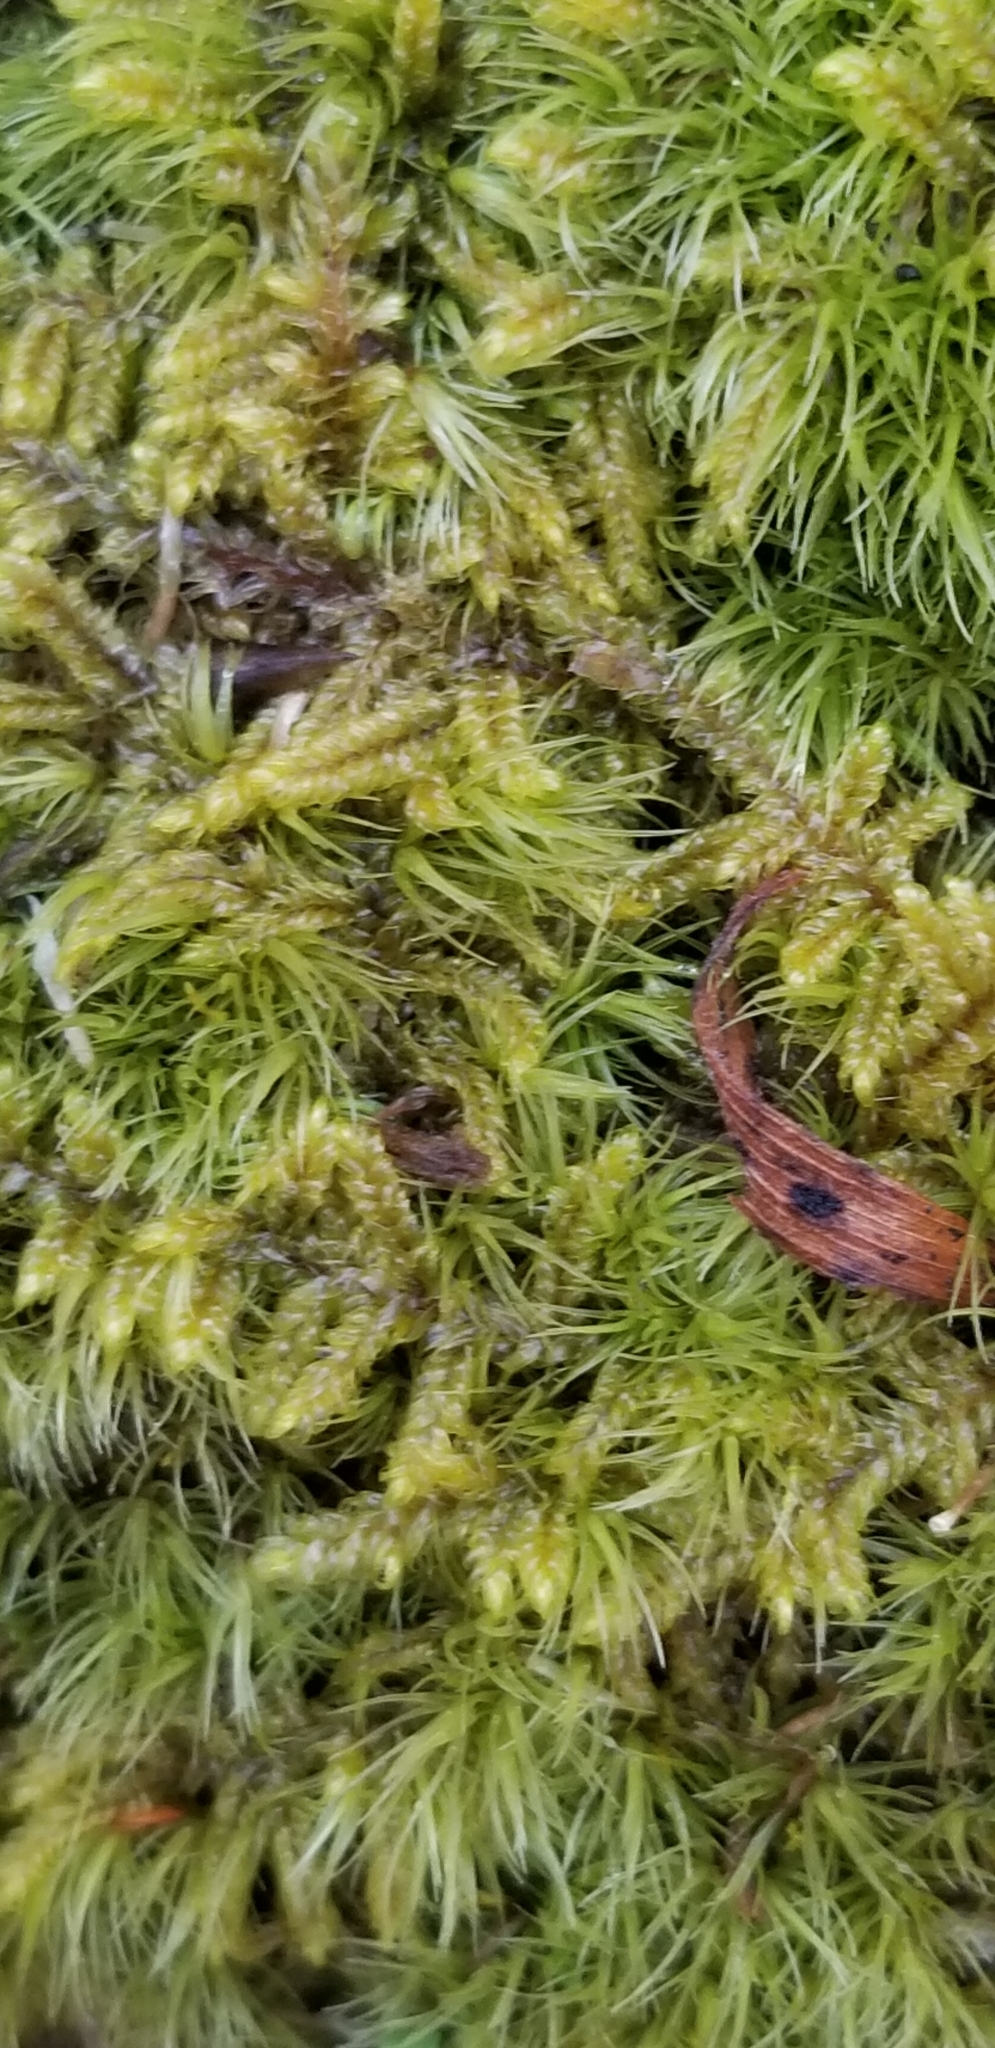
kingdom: Plantae
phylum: Bryophyta
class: Bryopsida
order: Hypnales
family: Callicladiaceae
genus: Callicladium
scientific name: Callicladium imponens
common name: Brocade moss
